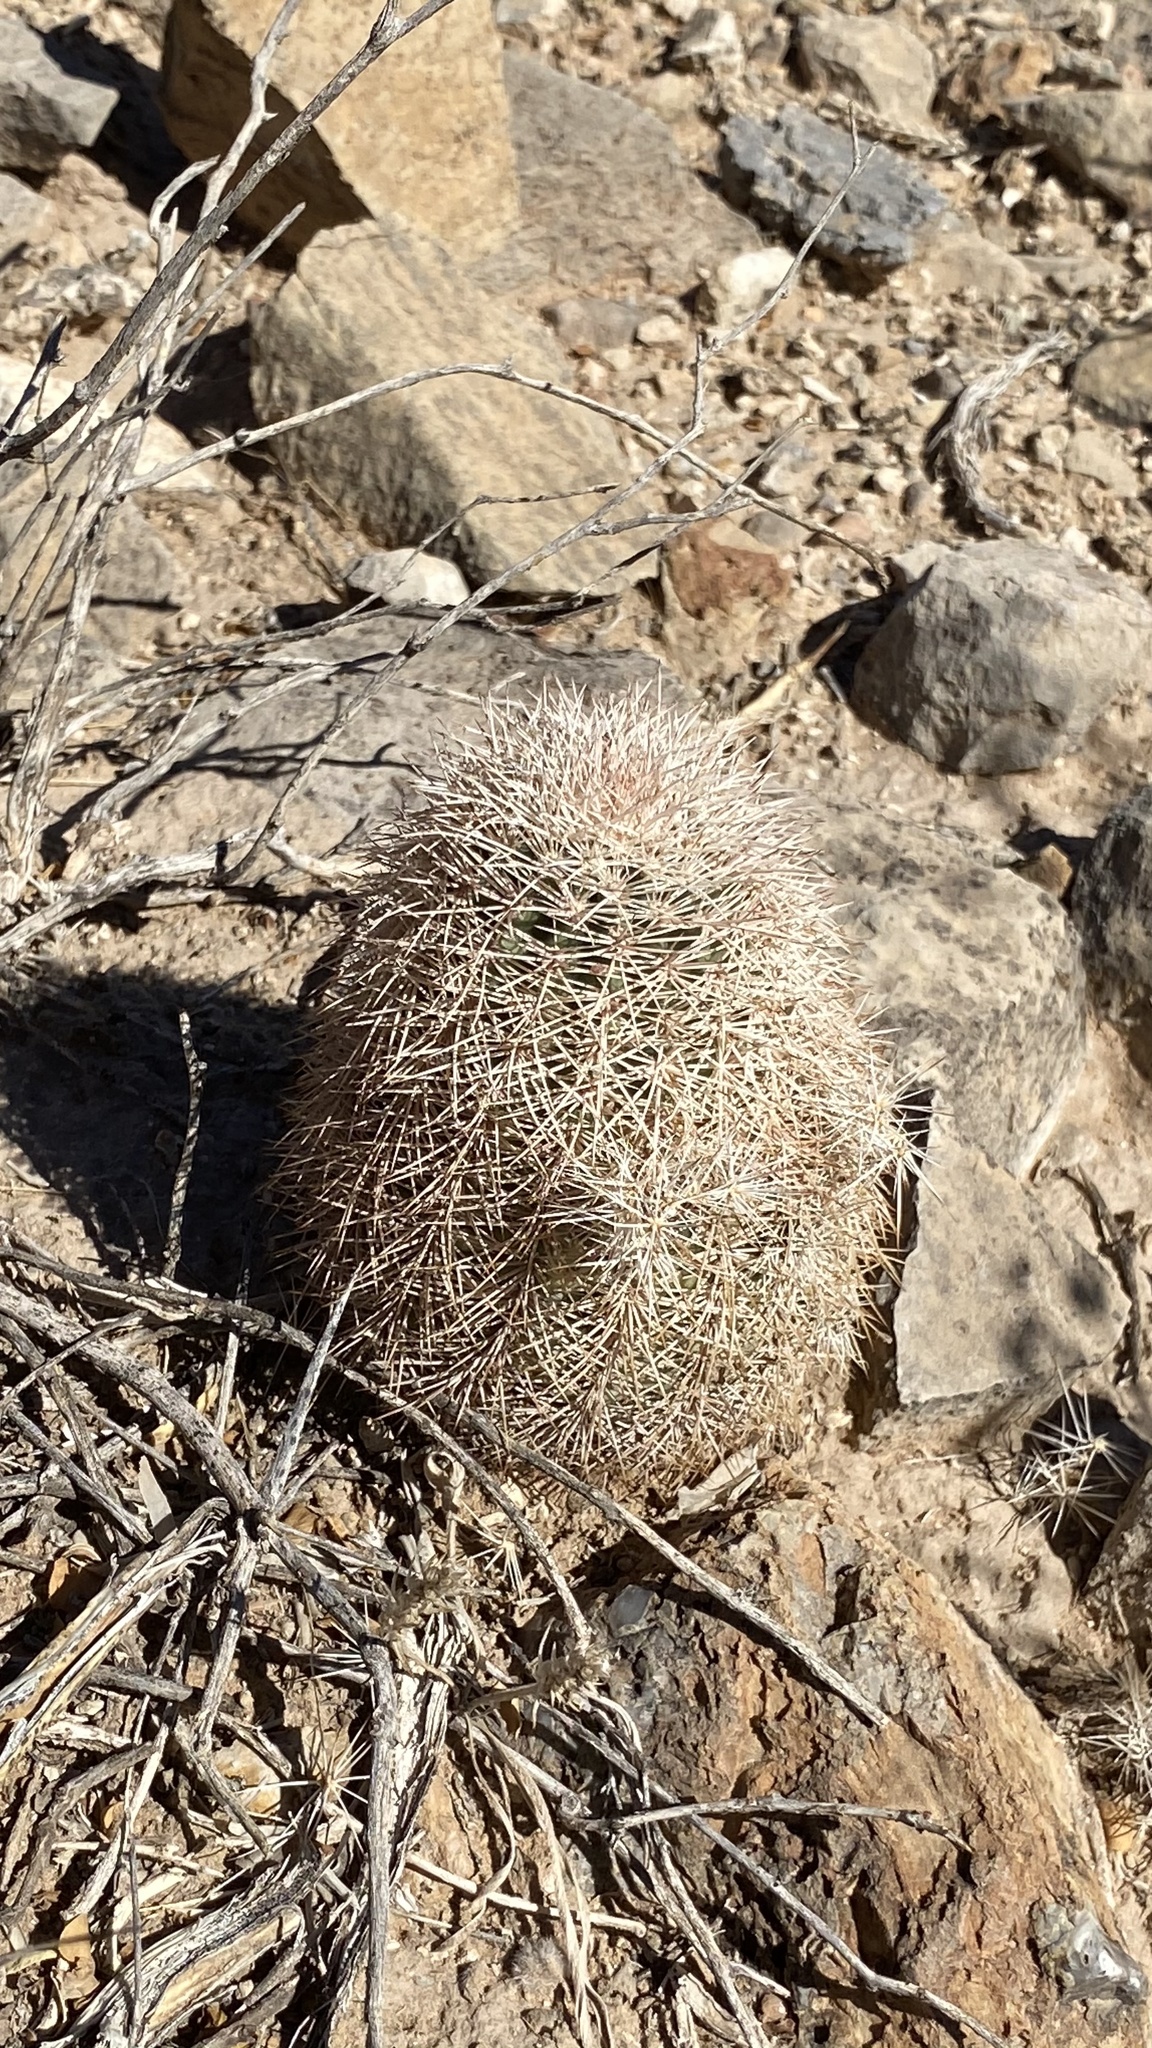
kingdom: Plantae
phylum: Tracheophyta
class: Magnoliopsida
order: Caryophyllales
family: Cactaceae
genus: Echinocereus
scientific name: Echinocereus dasyacanthus
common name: Spiny hedgehog cactus
